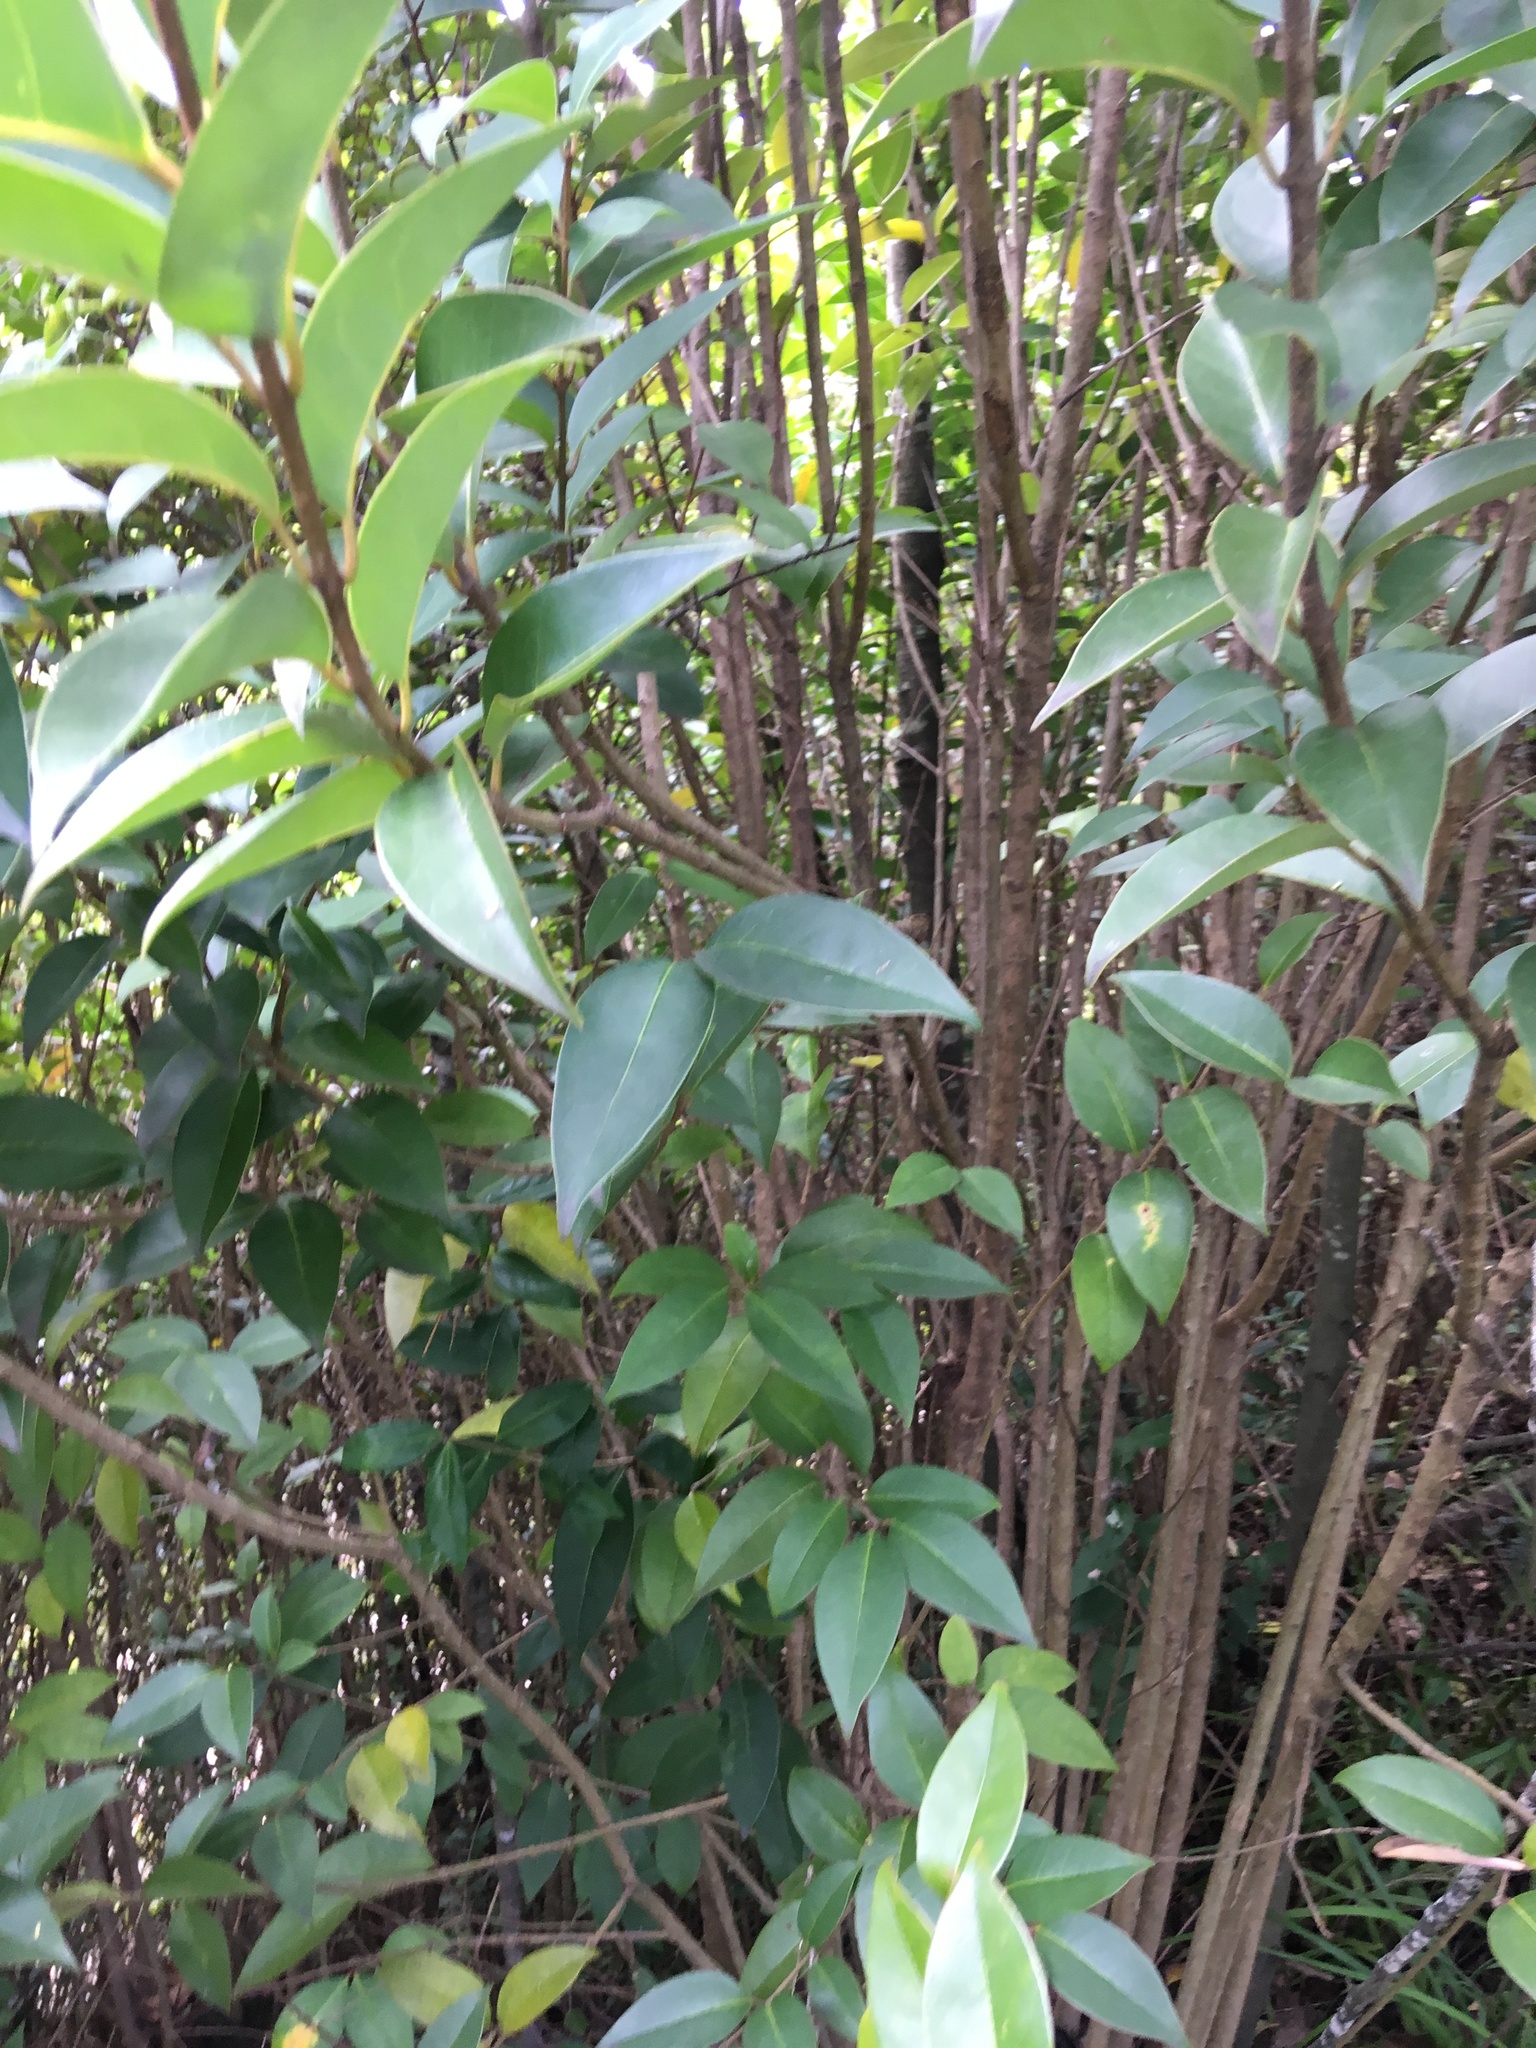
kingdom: Plantae
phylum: Tracheophyta
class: Magnoliopsida
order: Lamiales
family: Oleaceae
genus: Ligustrum
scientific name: Ligustrum lucidum
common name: Glossy privet
